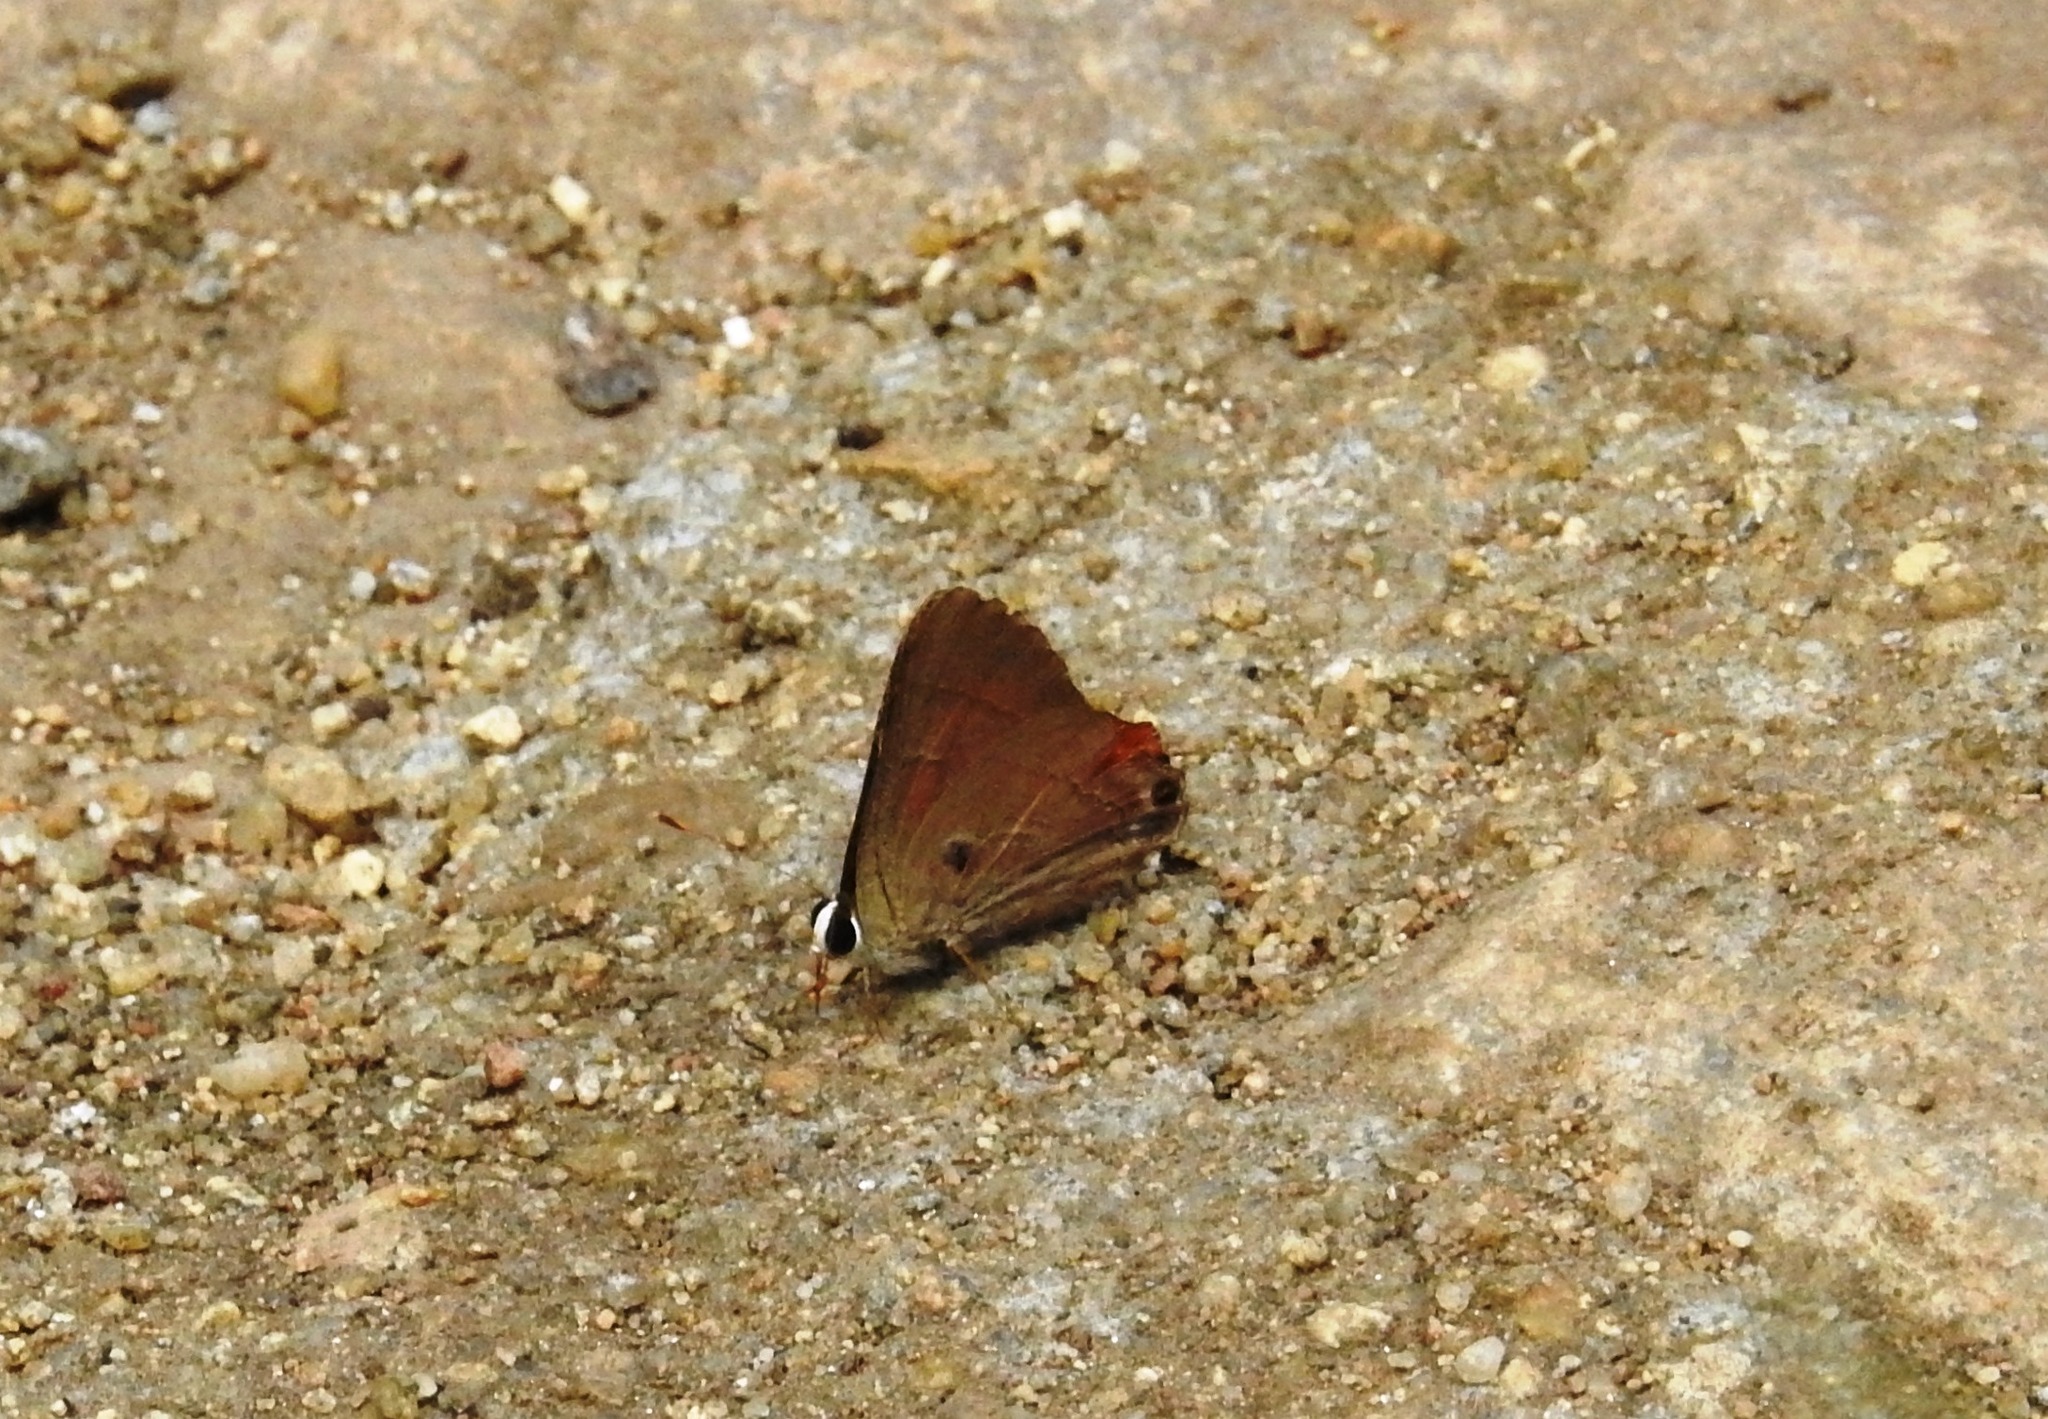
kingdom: Animalia
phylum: Arthropoda
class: Insecta
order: Lepidoptera
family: Lycaenidae
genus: Rapala
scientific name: Rapala iarbus
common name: Common red flash
